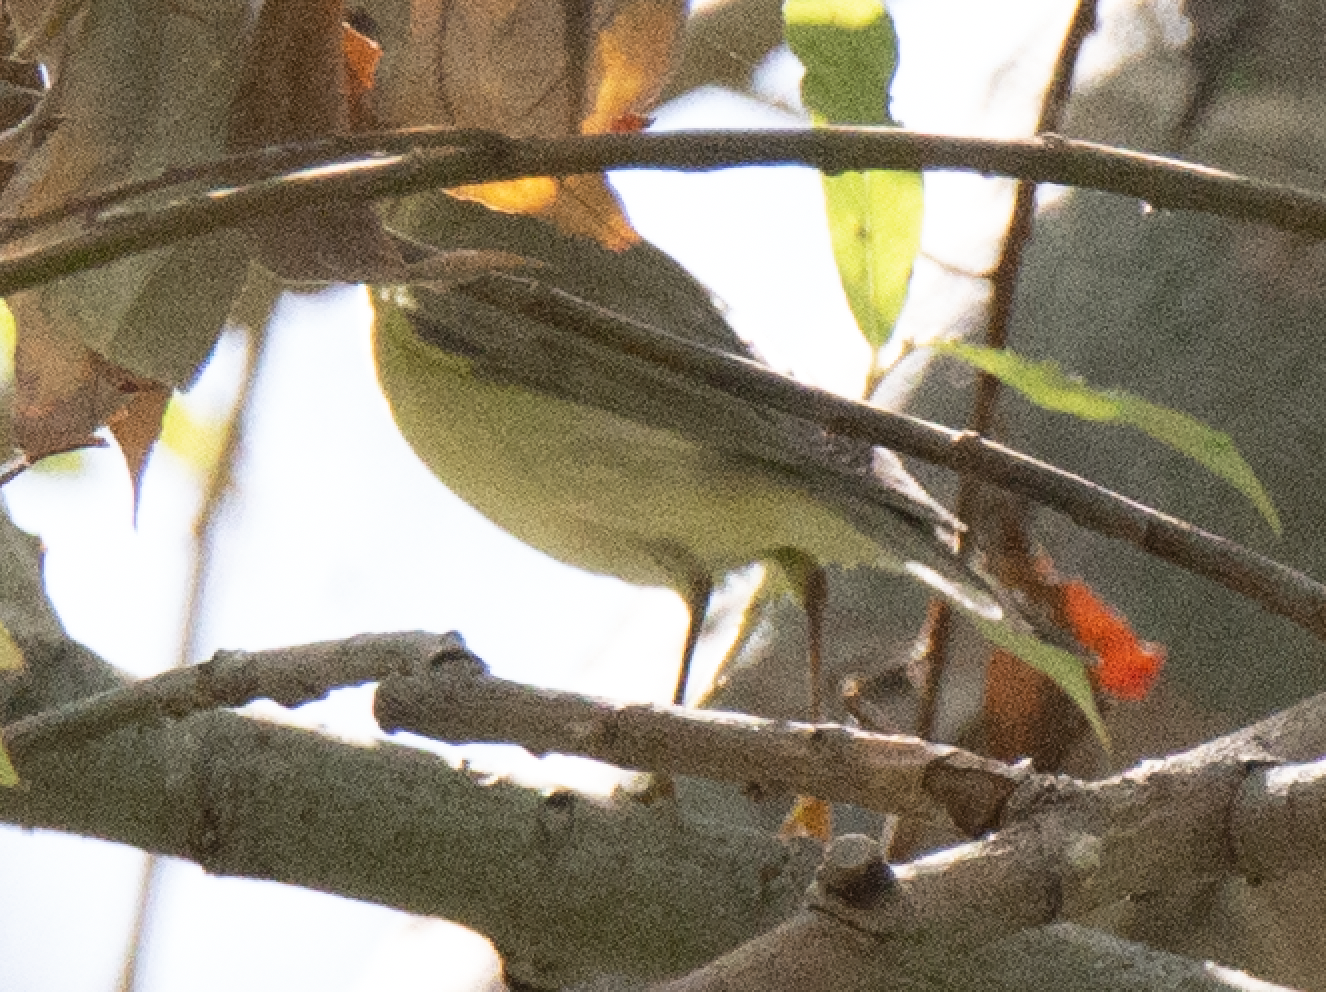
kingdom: Animalia
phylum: Chordata
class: Aves
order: Passeriformes
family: Phylloscopidae
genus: Phylloscopus
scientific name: Phylloscopus trochilus
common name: Willow warbler
